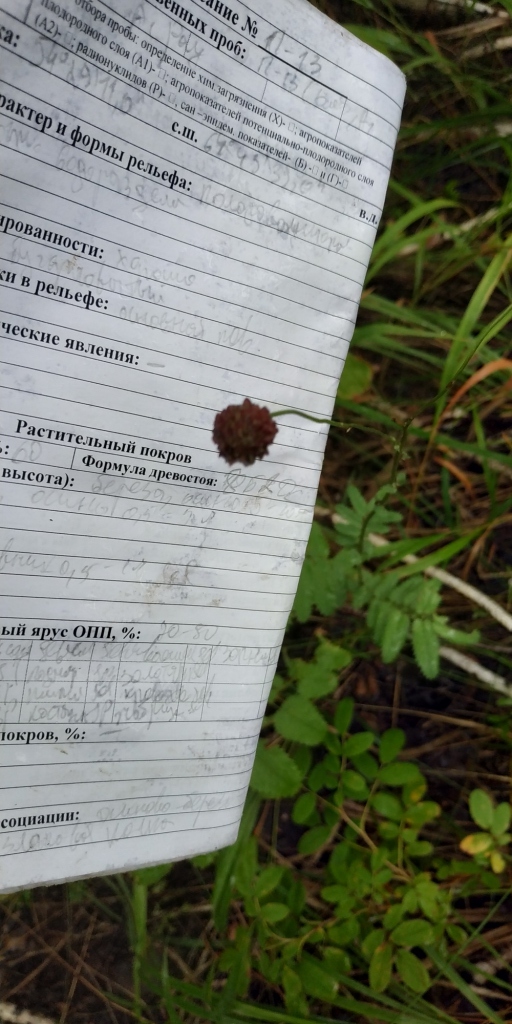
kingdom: Plantae
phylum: Tracheophyta
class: Magnoliopsida
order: Rosales
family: Rosaceae
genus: Sanguisorba
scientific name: Sanguisorba officinalis
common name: Great burnet
